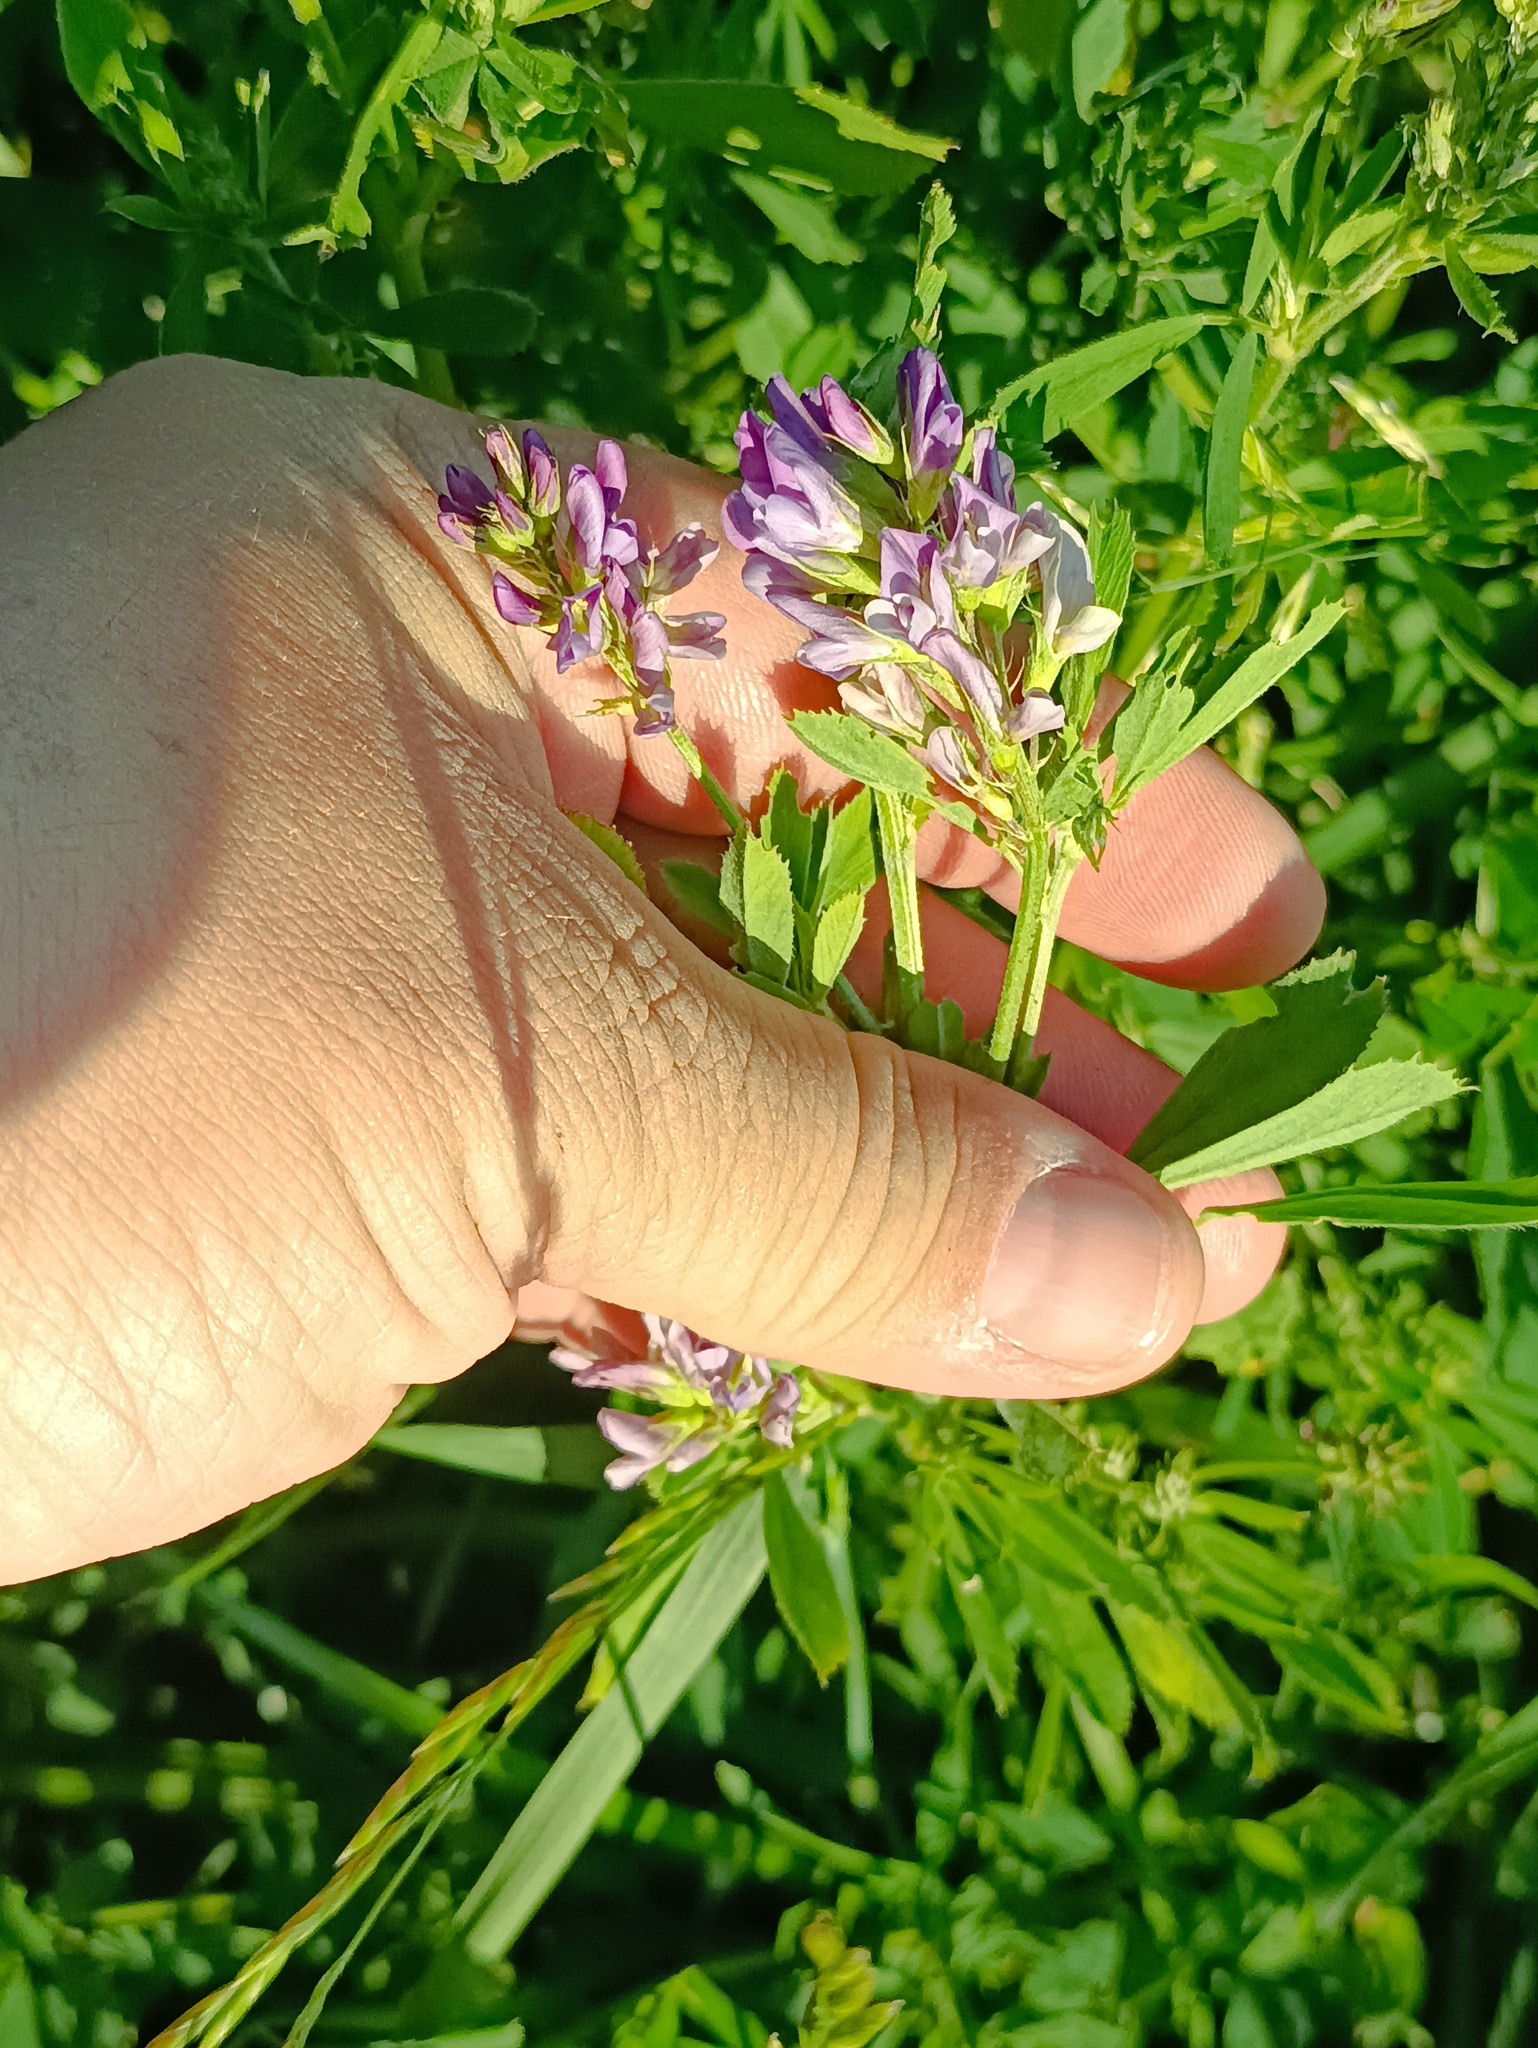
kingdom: Plantae
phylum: Tracheophyta
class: Magnoliopsida
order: Fabales
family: Fabaceae
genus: Medicago
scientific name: Medicago varia
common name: Sand lucerne
